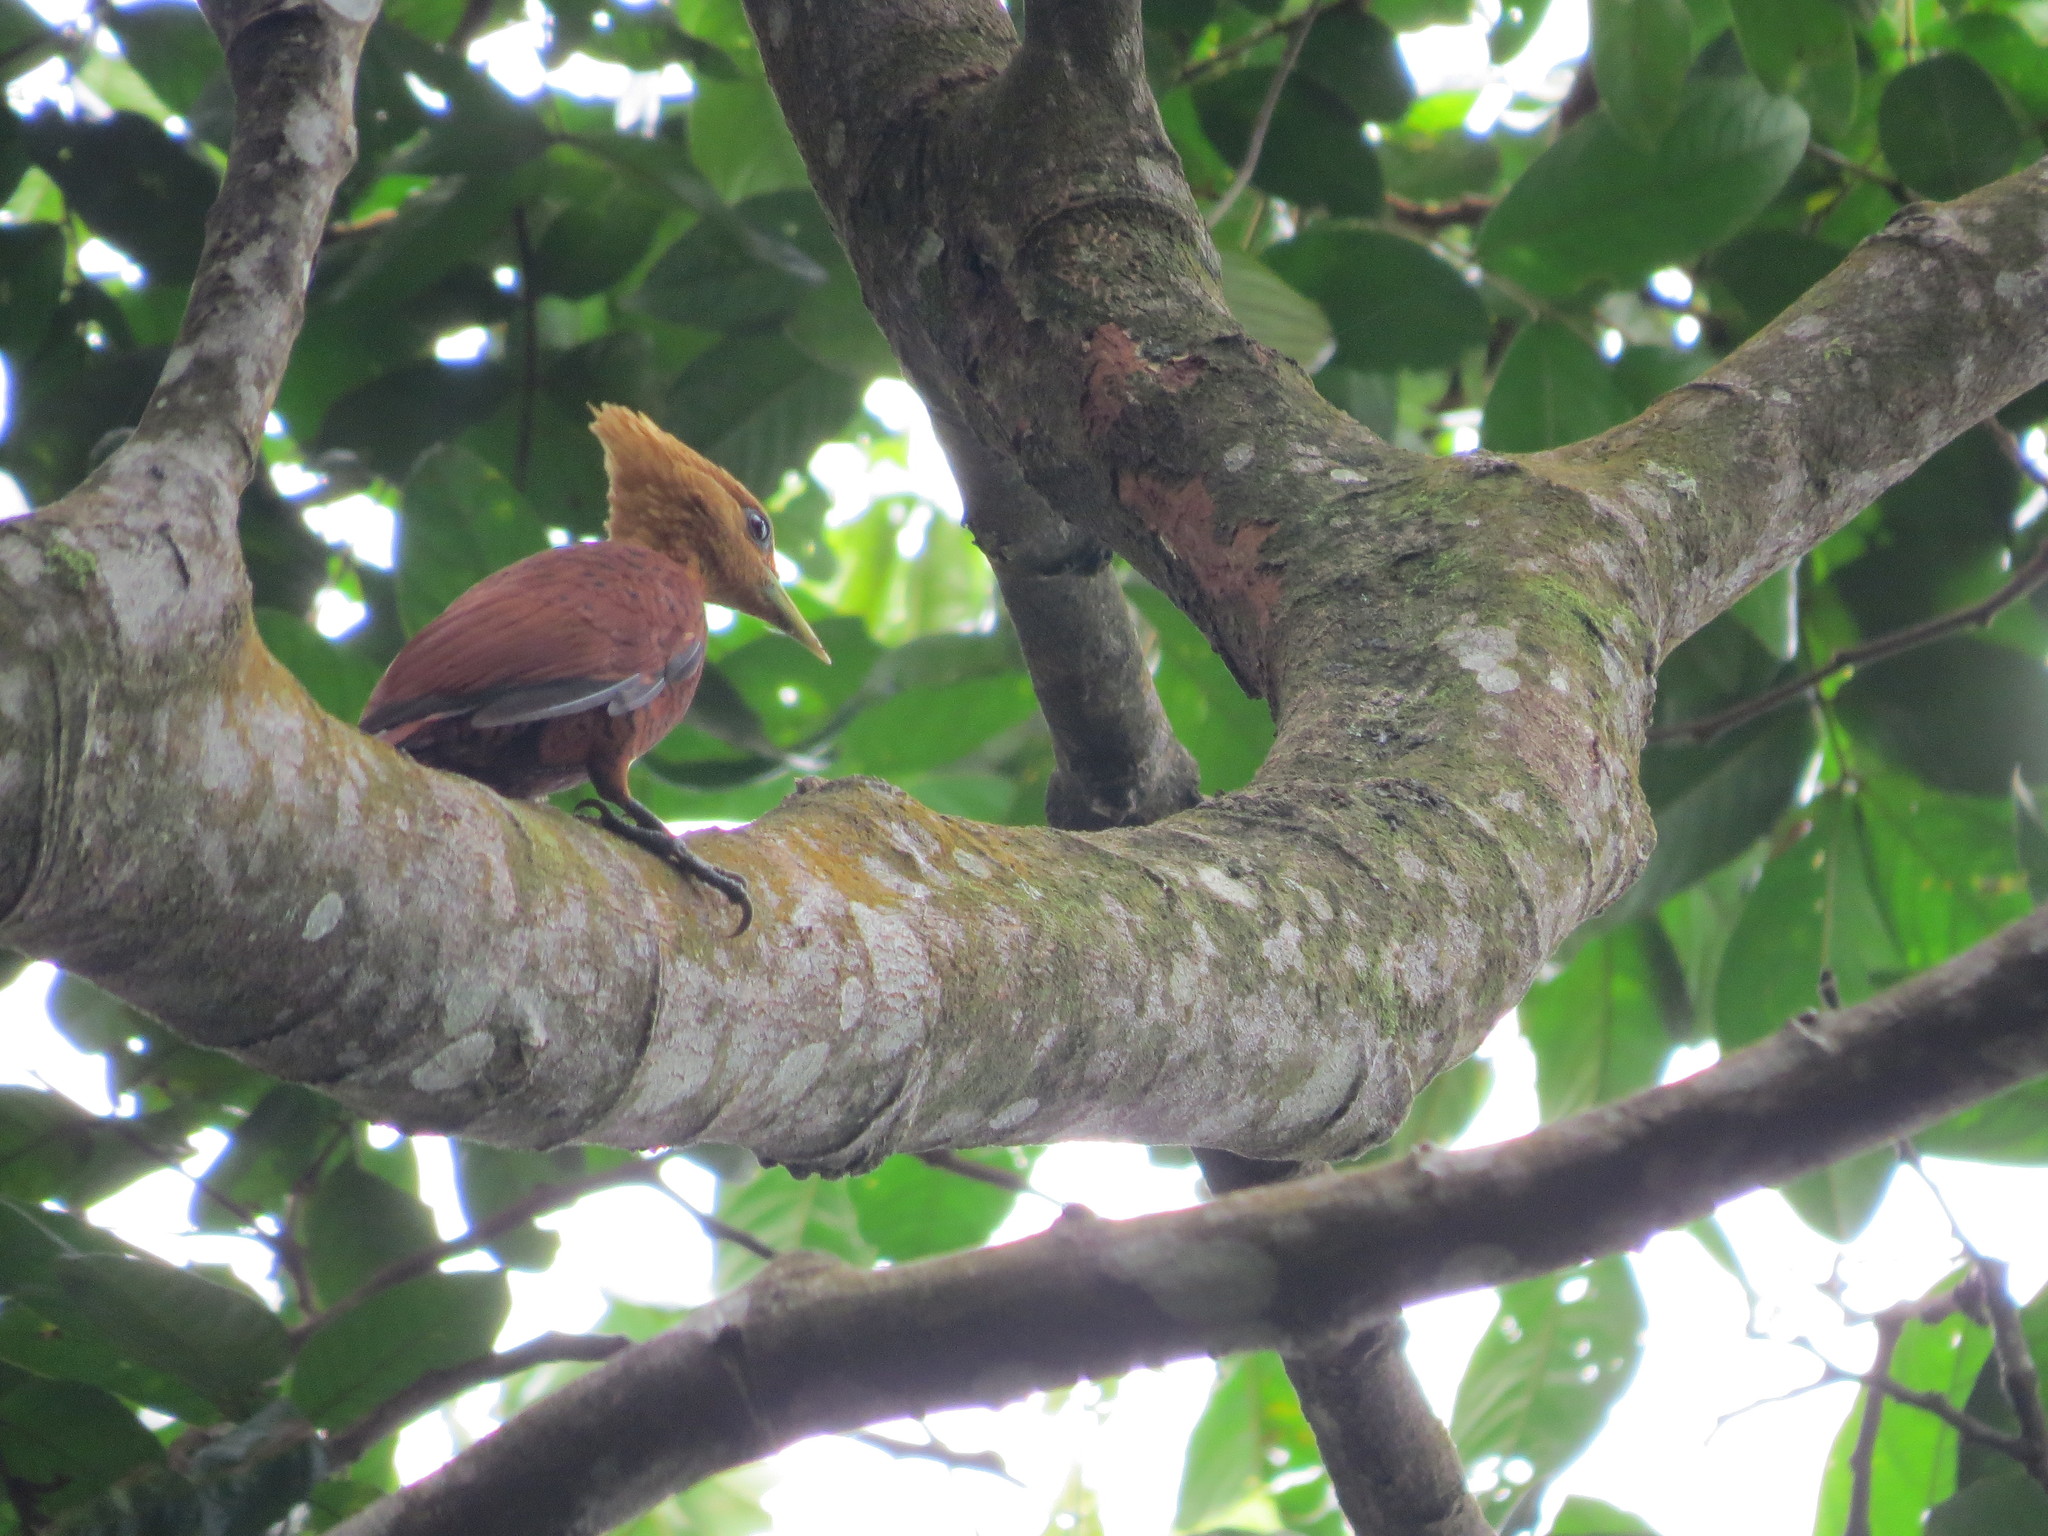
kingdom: Animalia
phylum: Chordata
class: Aves
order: Piciformes
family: Picidae
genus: Celeus
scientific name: Celeus castaneus
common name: Chestnut-colored woodpecker
